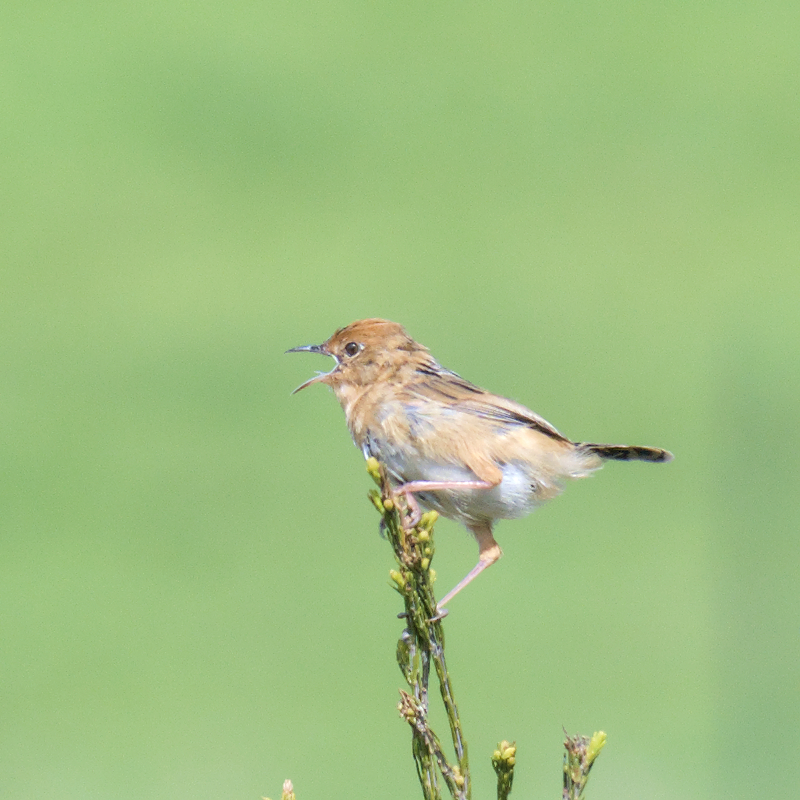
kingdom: Animalia
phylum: Chordata
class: Aves
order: Passeriformes
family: Cisticolidae
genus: Cisticola
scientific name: Cisticola exilis
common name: Golden-headed cisticola
